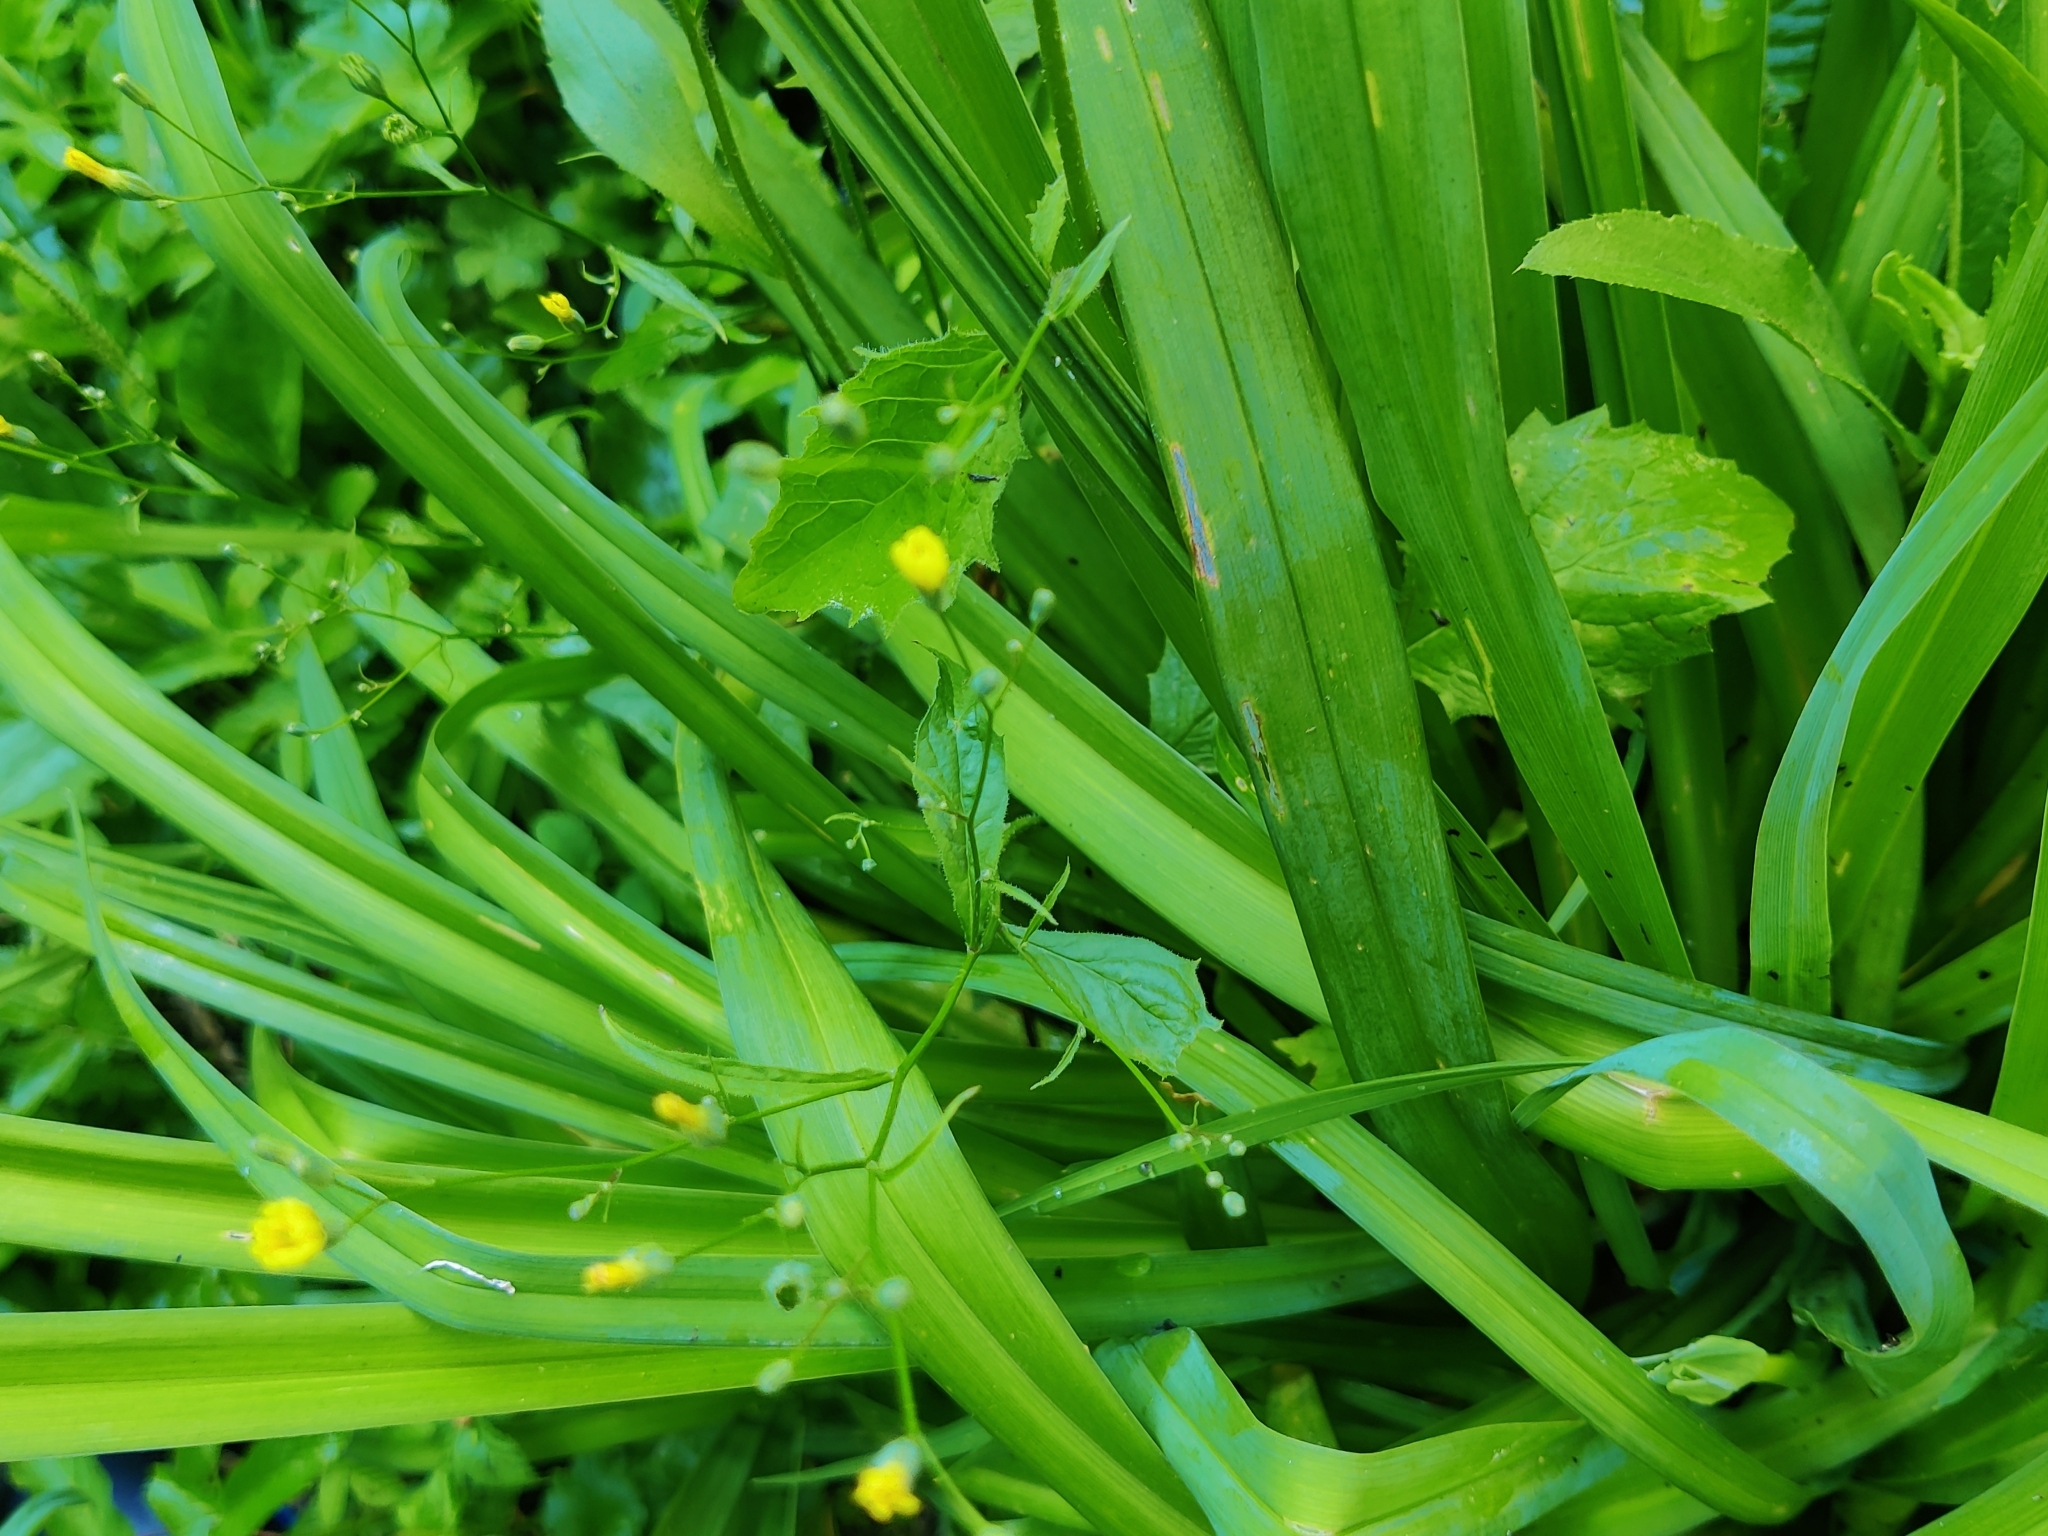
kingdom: Plantae
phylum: Tracheophyta
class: Magnoliopsida
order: Asterales
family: Asteraceae
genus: Lapsana
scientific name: Lapsana communis
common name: Nipplewort
